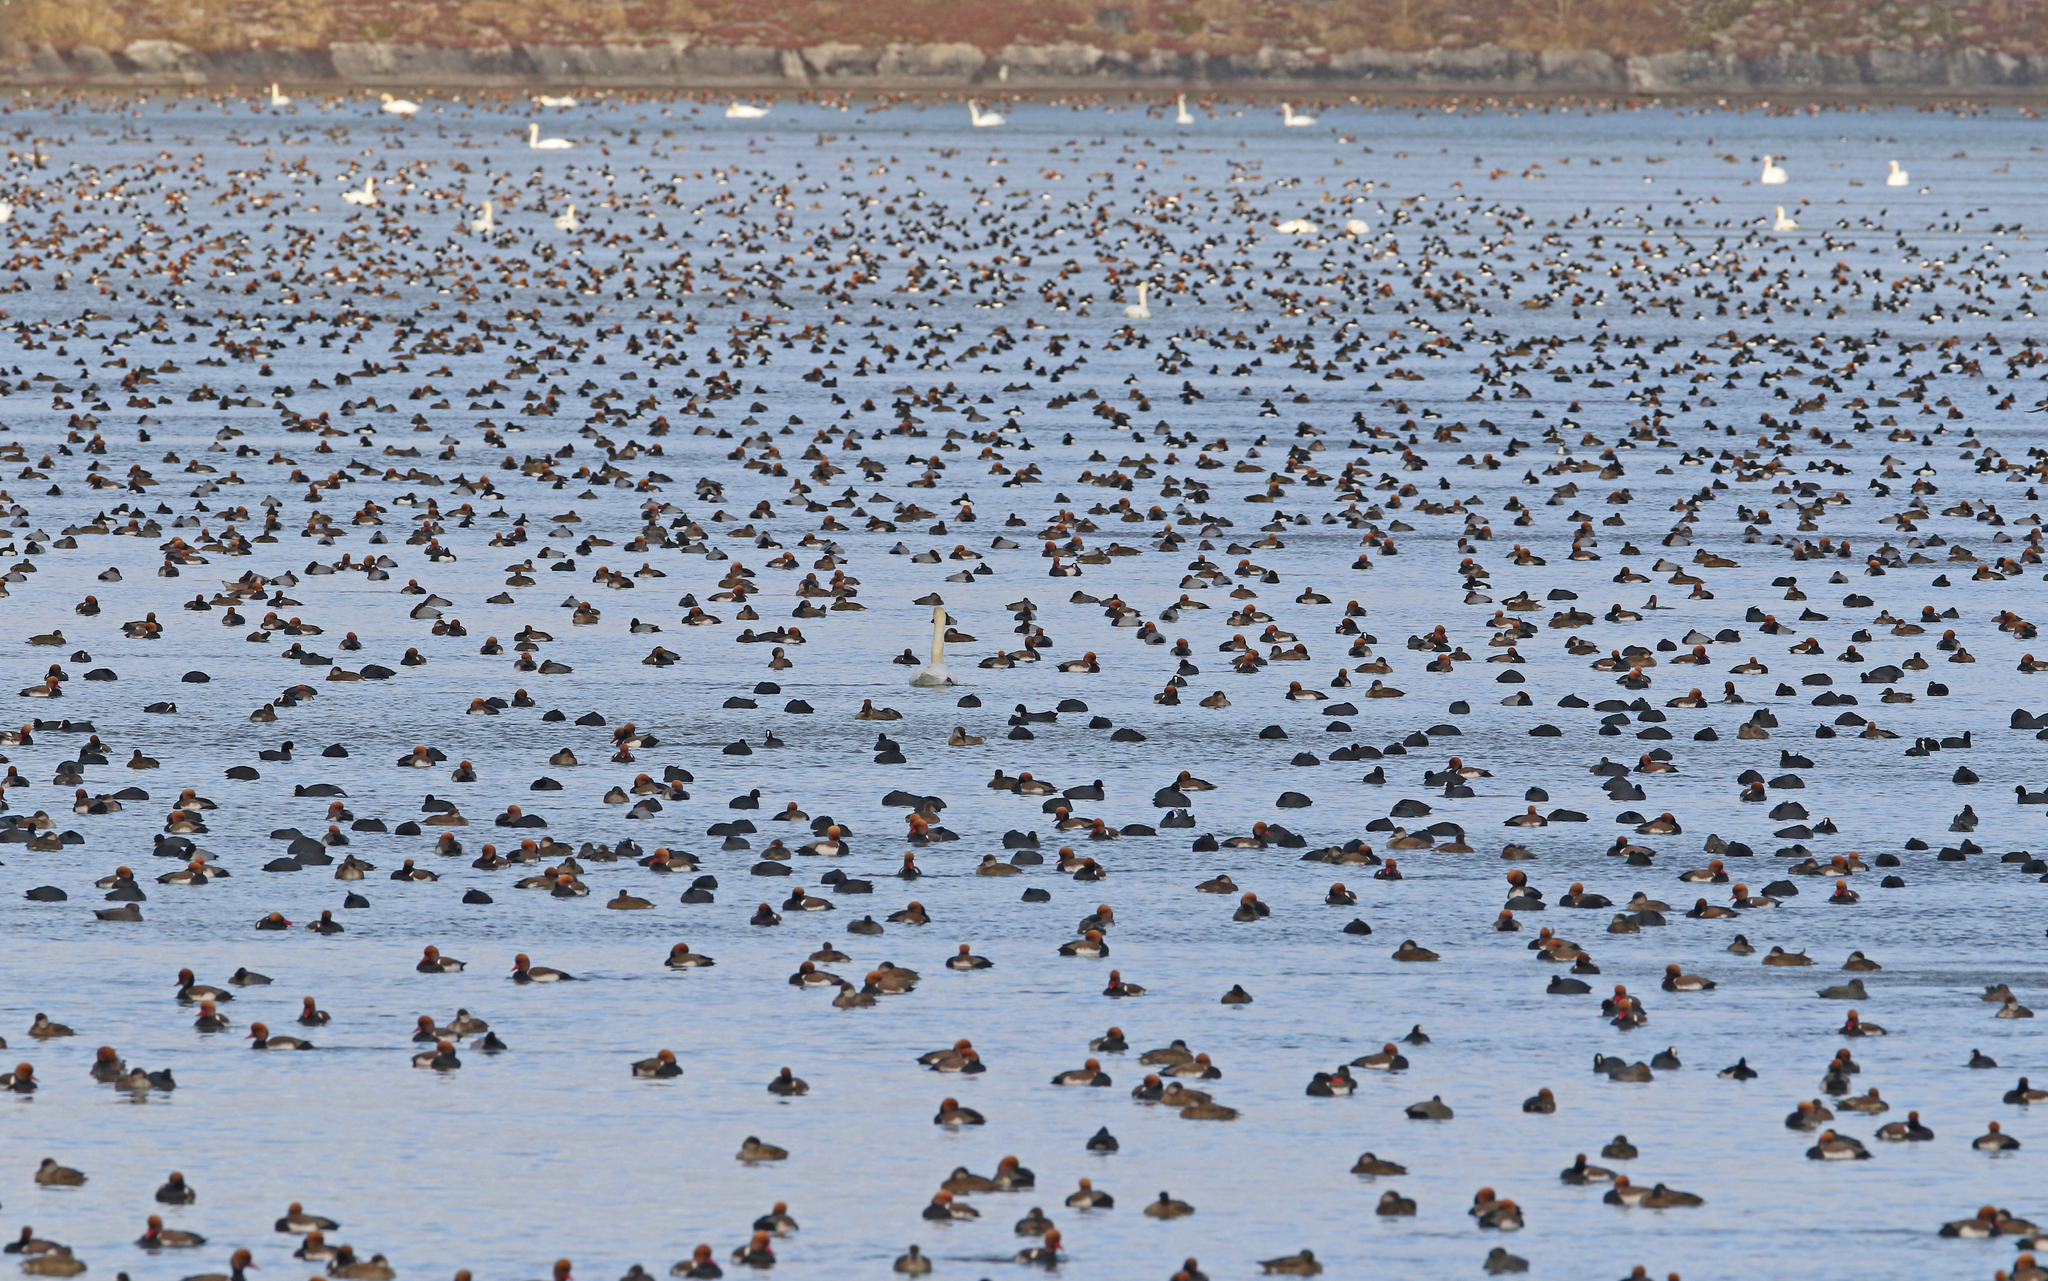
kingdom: Animalia
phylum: Chordata
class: Aves
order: Anseriformes
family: Anatidae
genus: Netta
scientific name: Netta rufina
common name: Red-crested pochard
